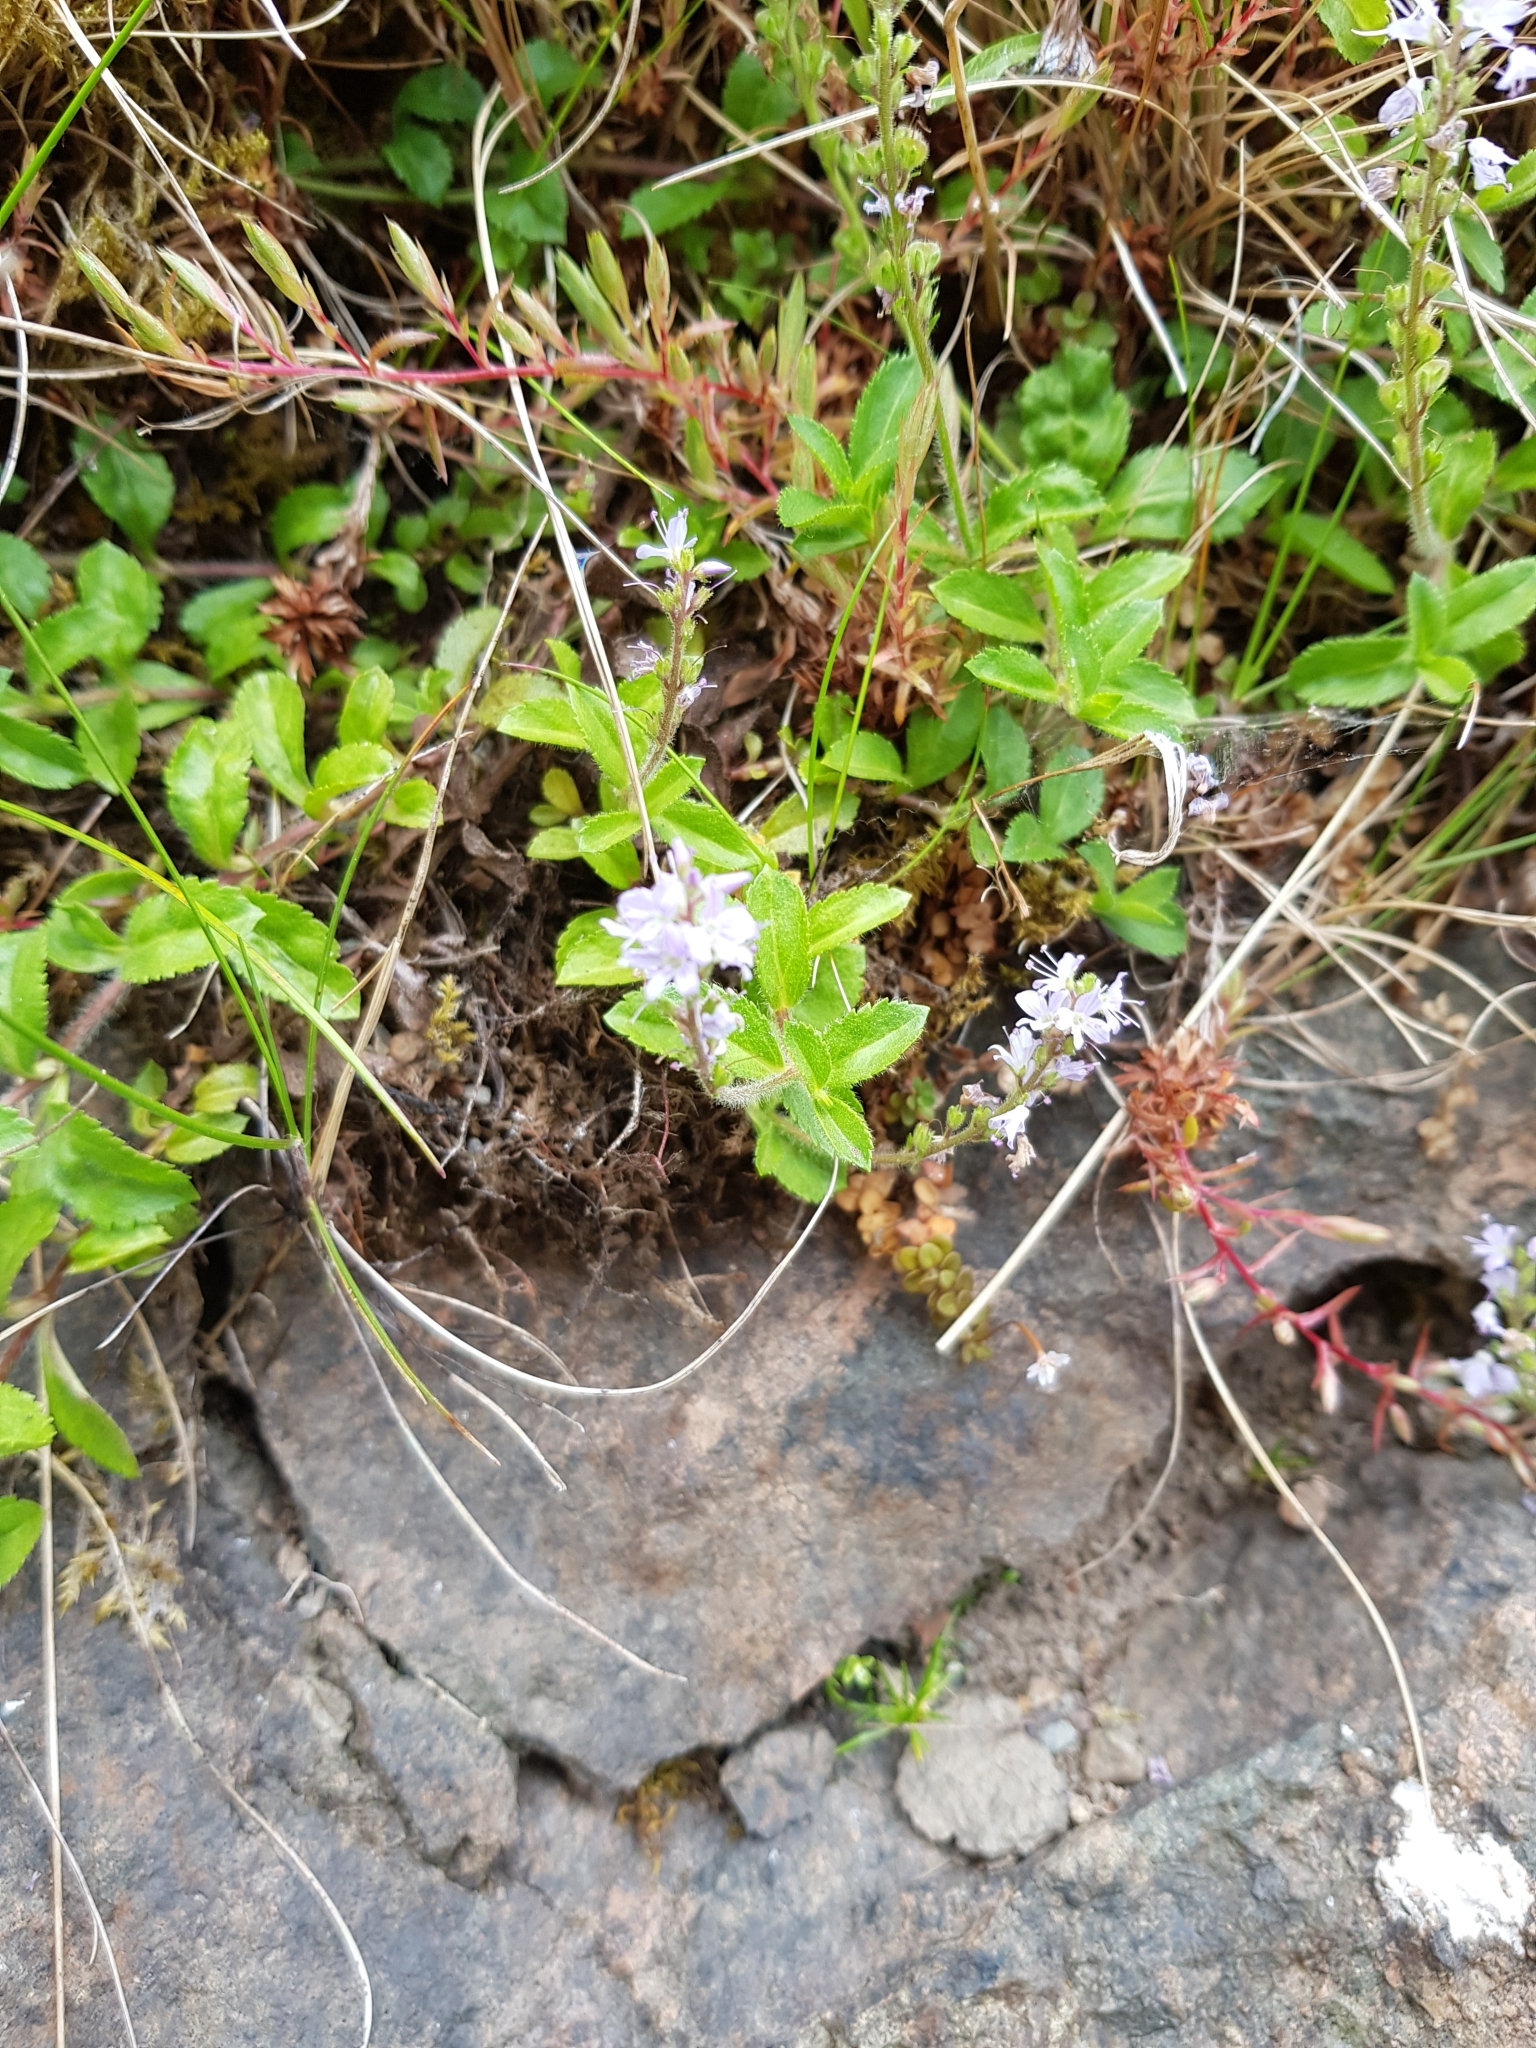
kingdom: Plantae
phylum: Tracheophyta
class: Magnoliopsida
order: Lamiales
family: Plantaginaceae
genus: Veronica
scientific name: Veronica officinalis
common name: Common speedwell
